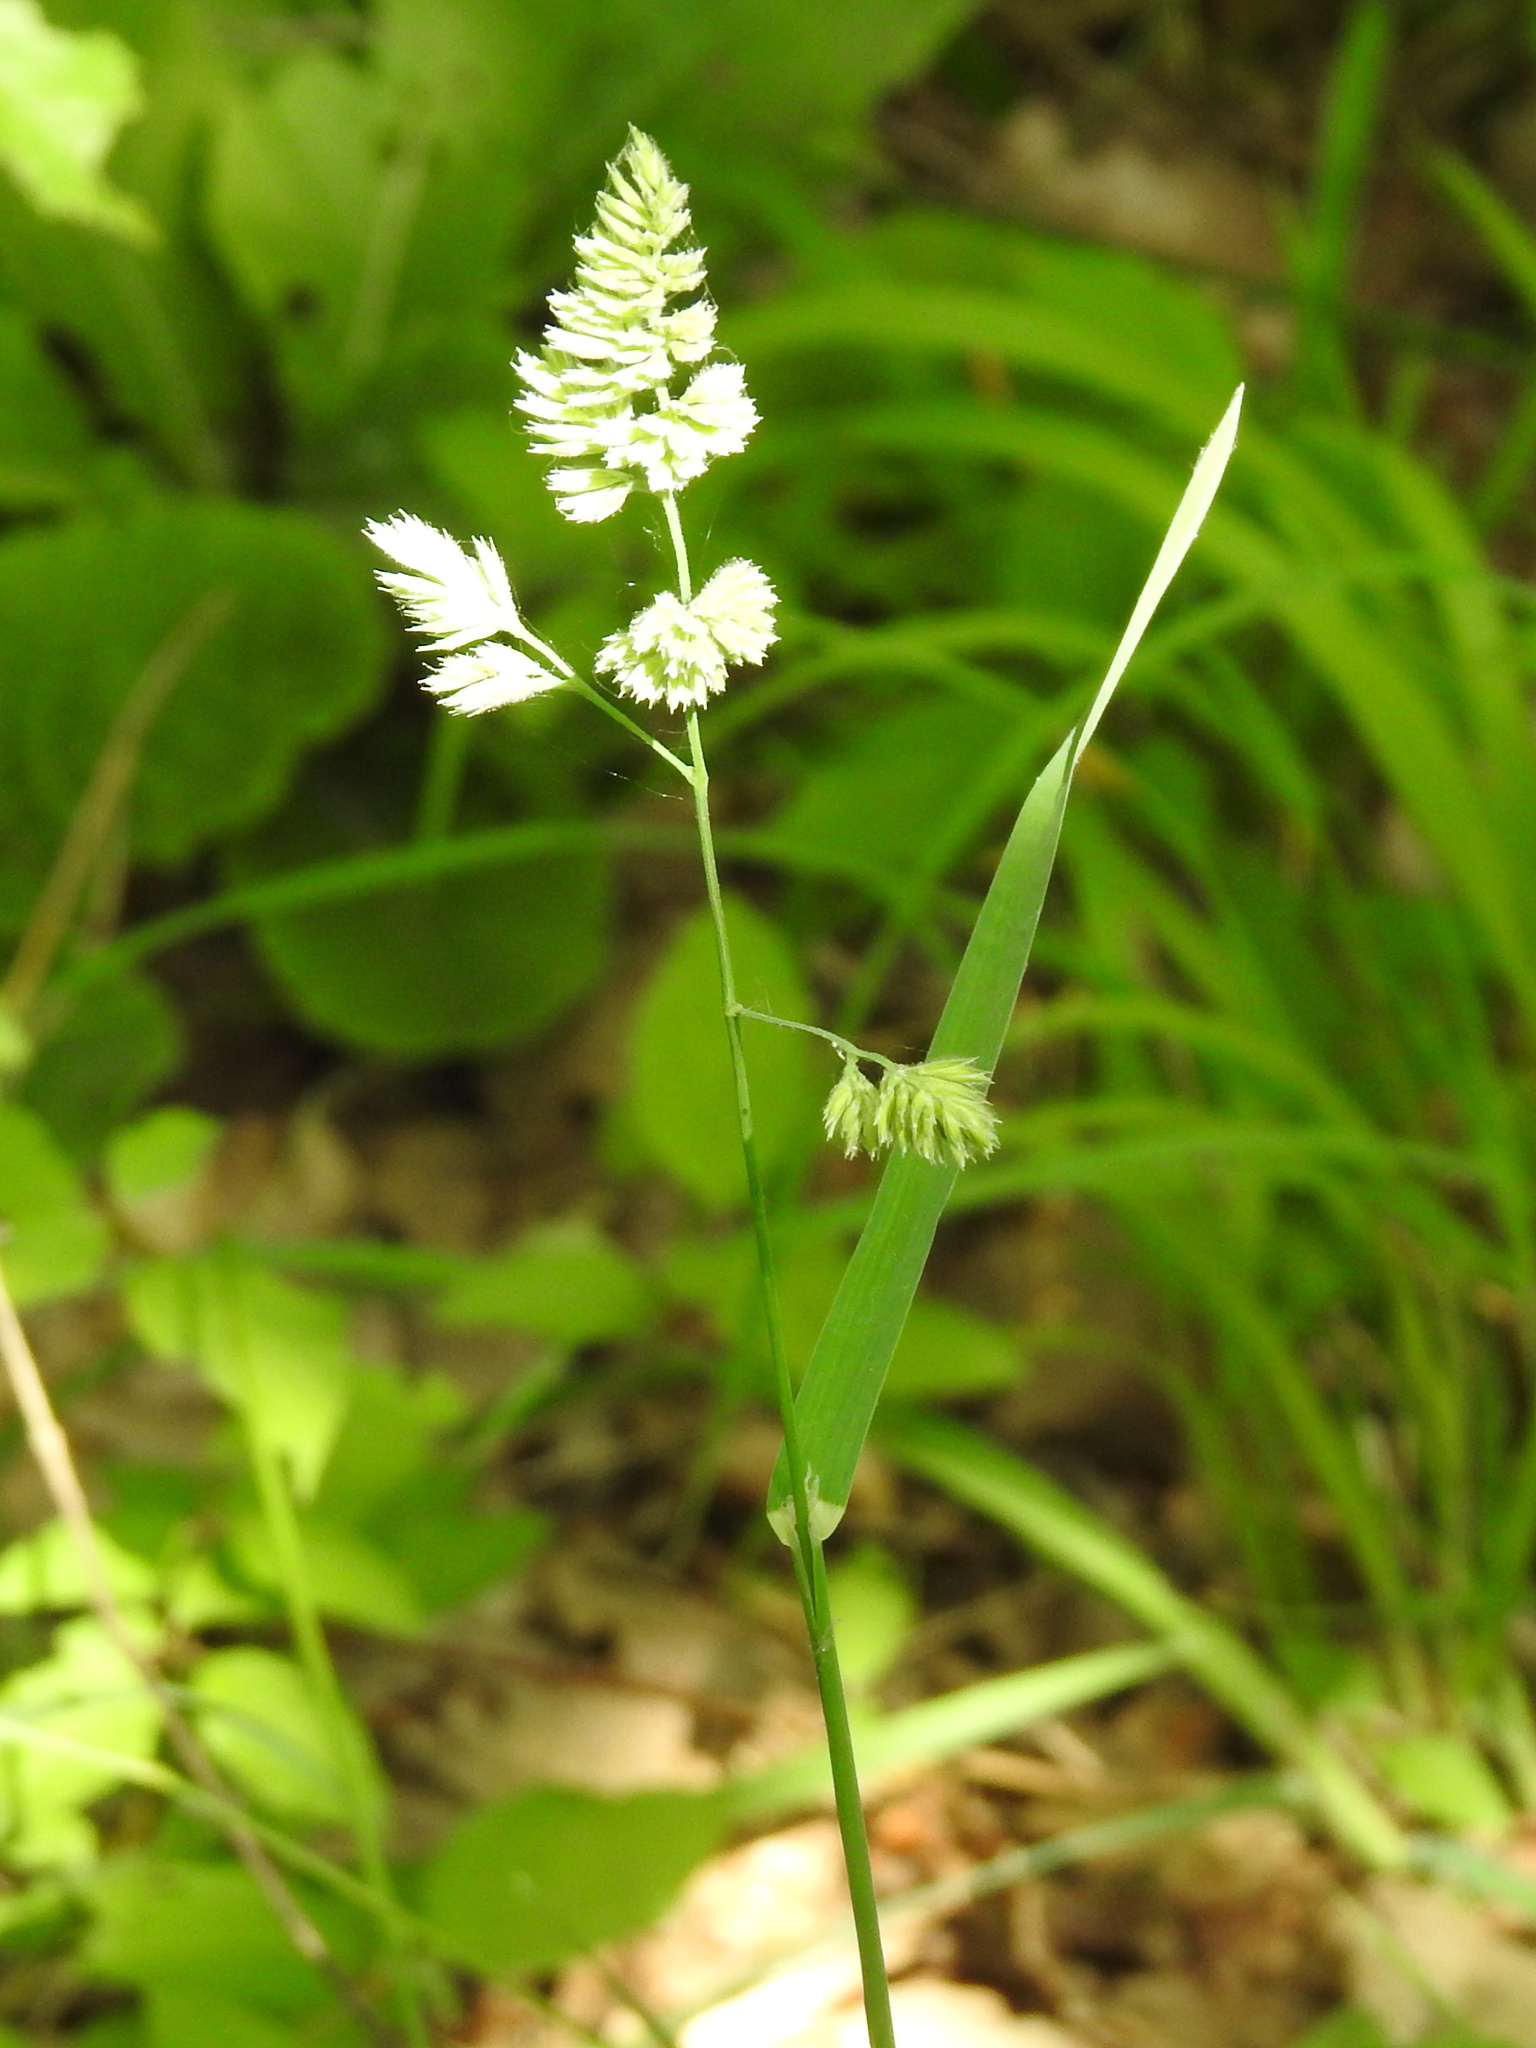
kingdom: Plantae
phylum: Tracheophyta
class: Liliopsida
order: Poales
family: Poaceae
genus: Dactylis
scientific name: Dactylis glomerata
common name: Orchardgrass
